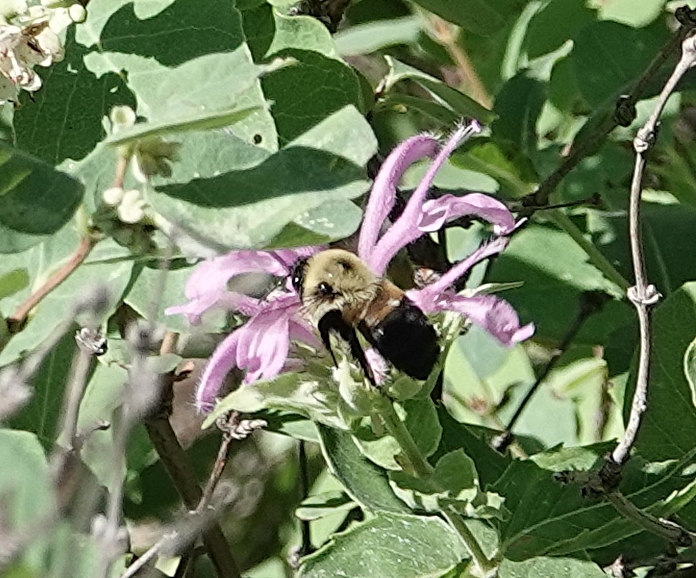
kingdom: Animalia
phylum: Arthropoda
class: Insecta
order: Hymenoptera
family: Apidae
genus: Bombus
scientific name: Bombus griseocollis
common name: Brown-belted bumble bee
